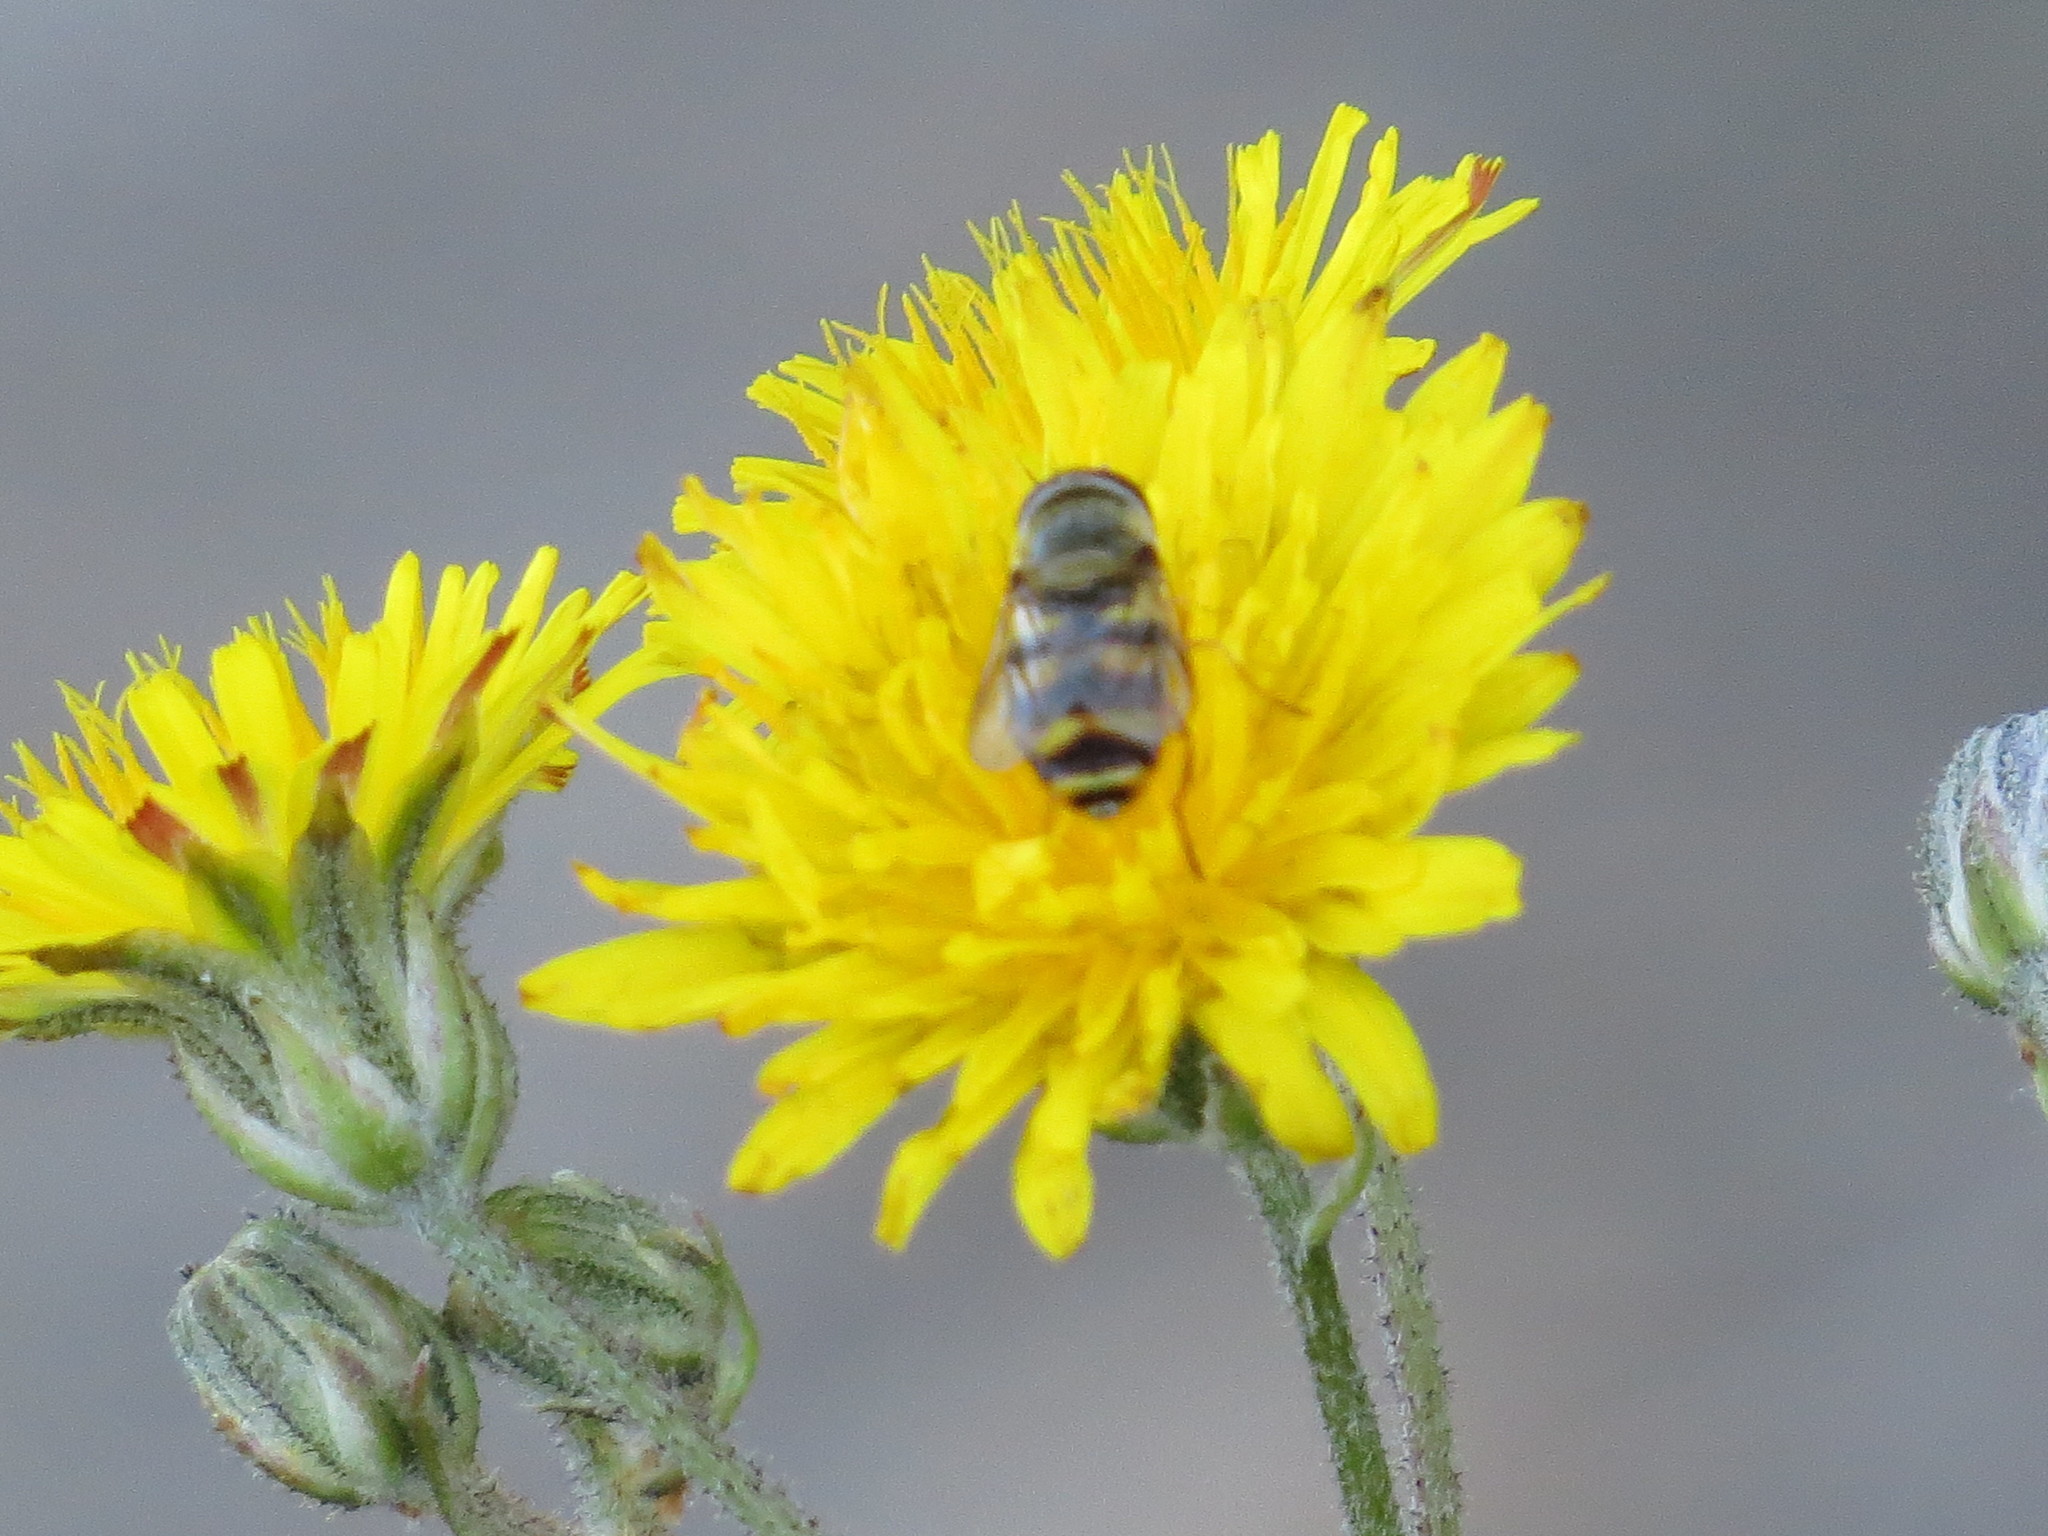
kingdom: Animalia
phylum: Arthropoda
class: Insecta
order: Diptera
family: Syrphidae
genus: Eupeodes
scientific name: Eupeodes fumipennis
